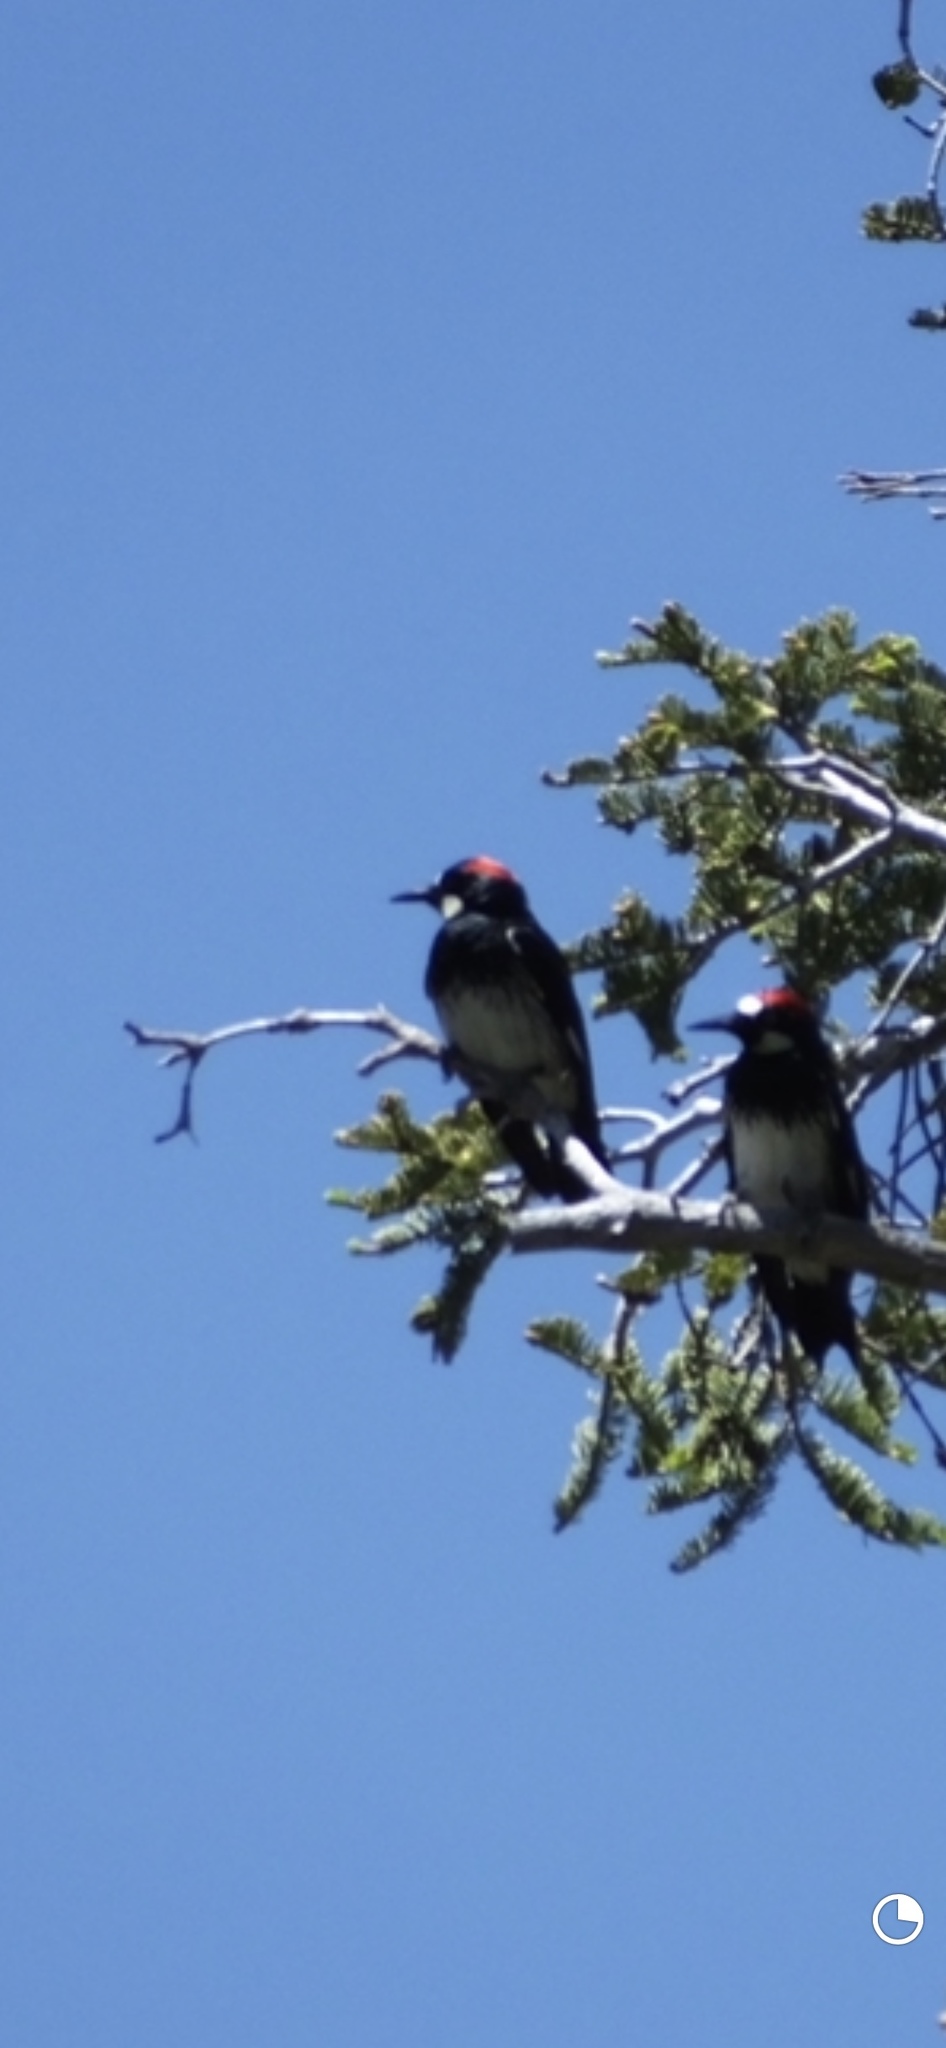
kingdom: Animalia
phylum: Chordata
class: Aves
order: Piciformes
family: Picidae
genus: Melanerpes
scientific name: Melanerpes formicivorus
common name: Acorn woodpecker
